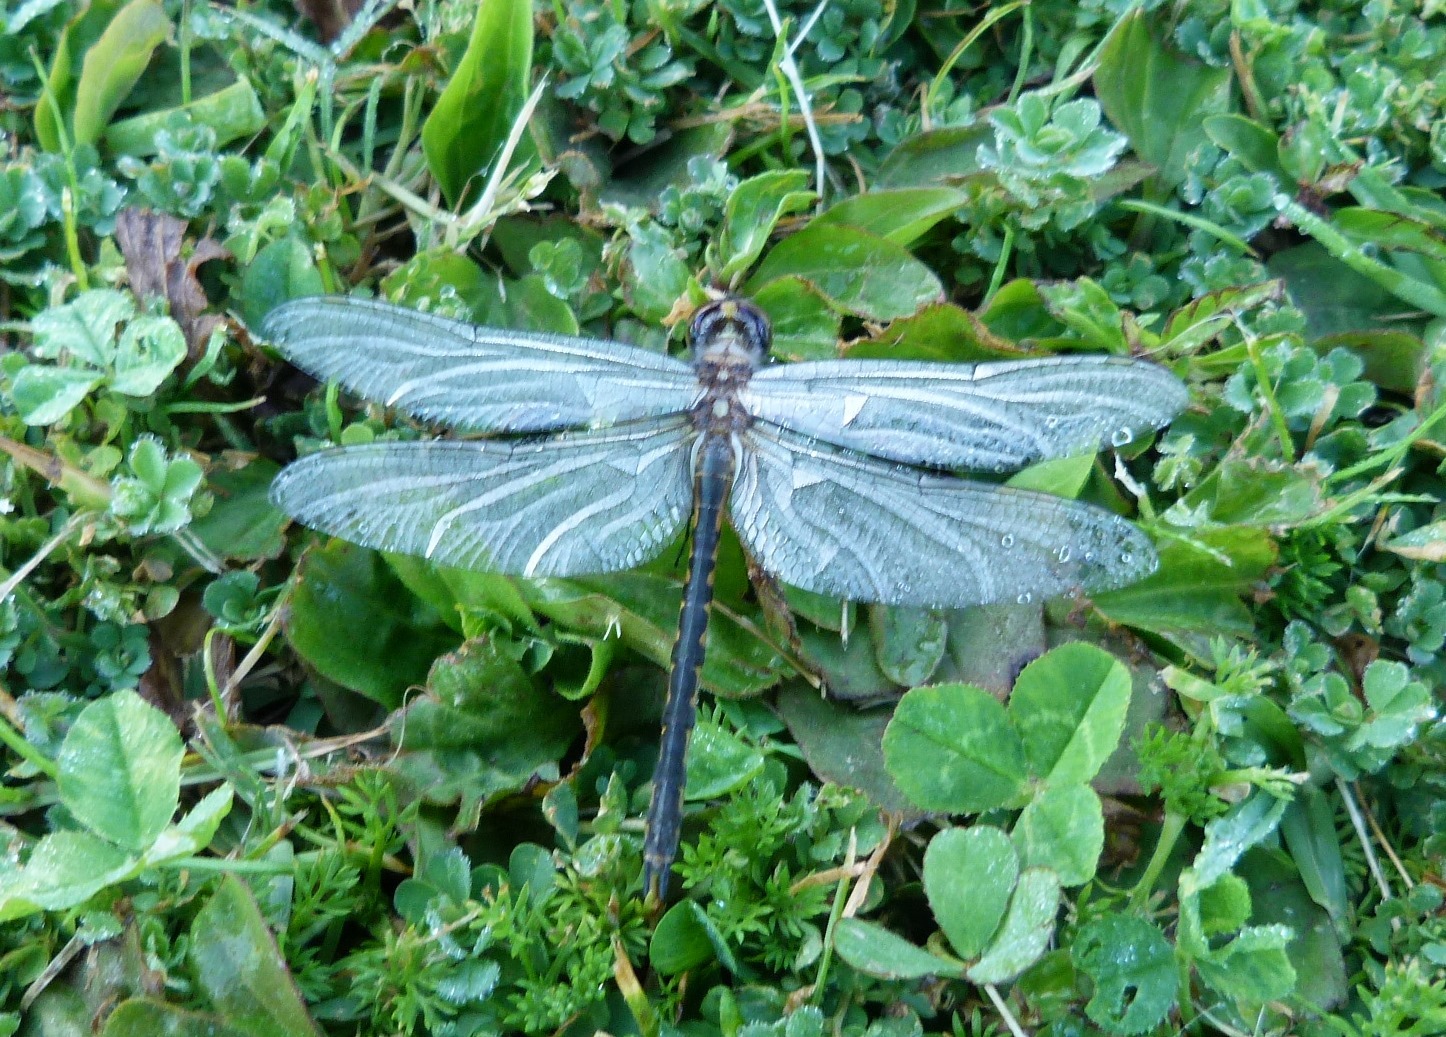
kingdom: Animalia
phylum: Arthropoda
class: Insecta
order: Odonata
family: Corduliidae
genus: Hemicordulia
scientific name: Hemicordulia australiae
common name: Sentry dragonfly
